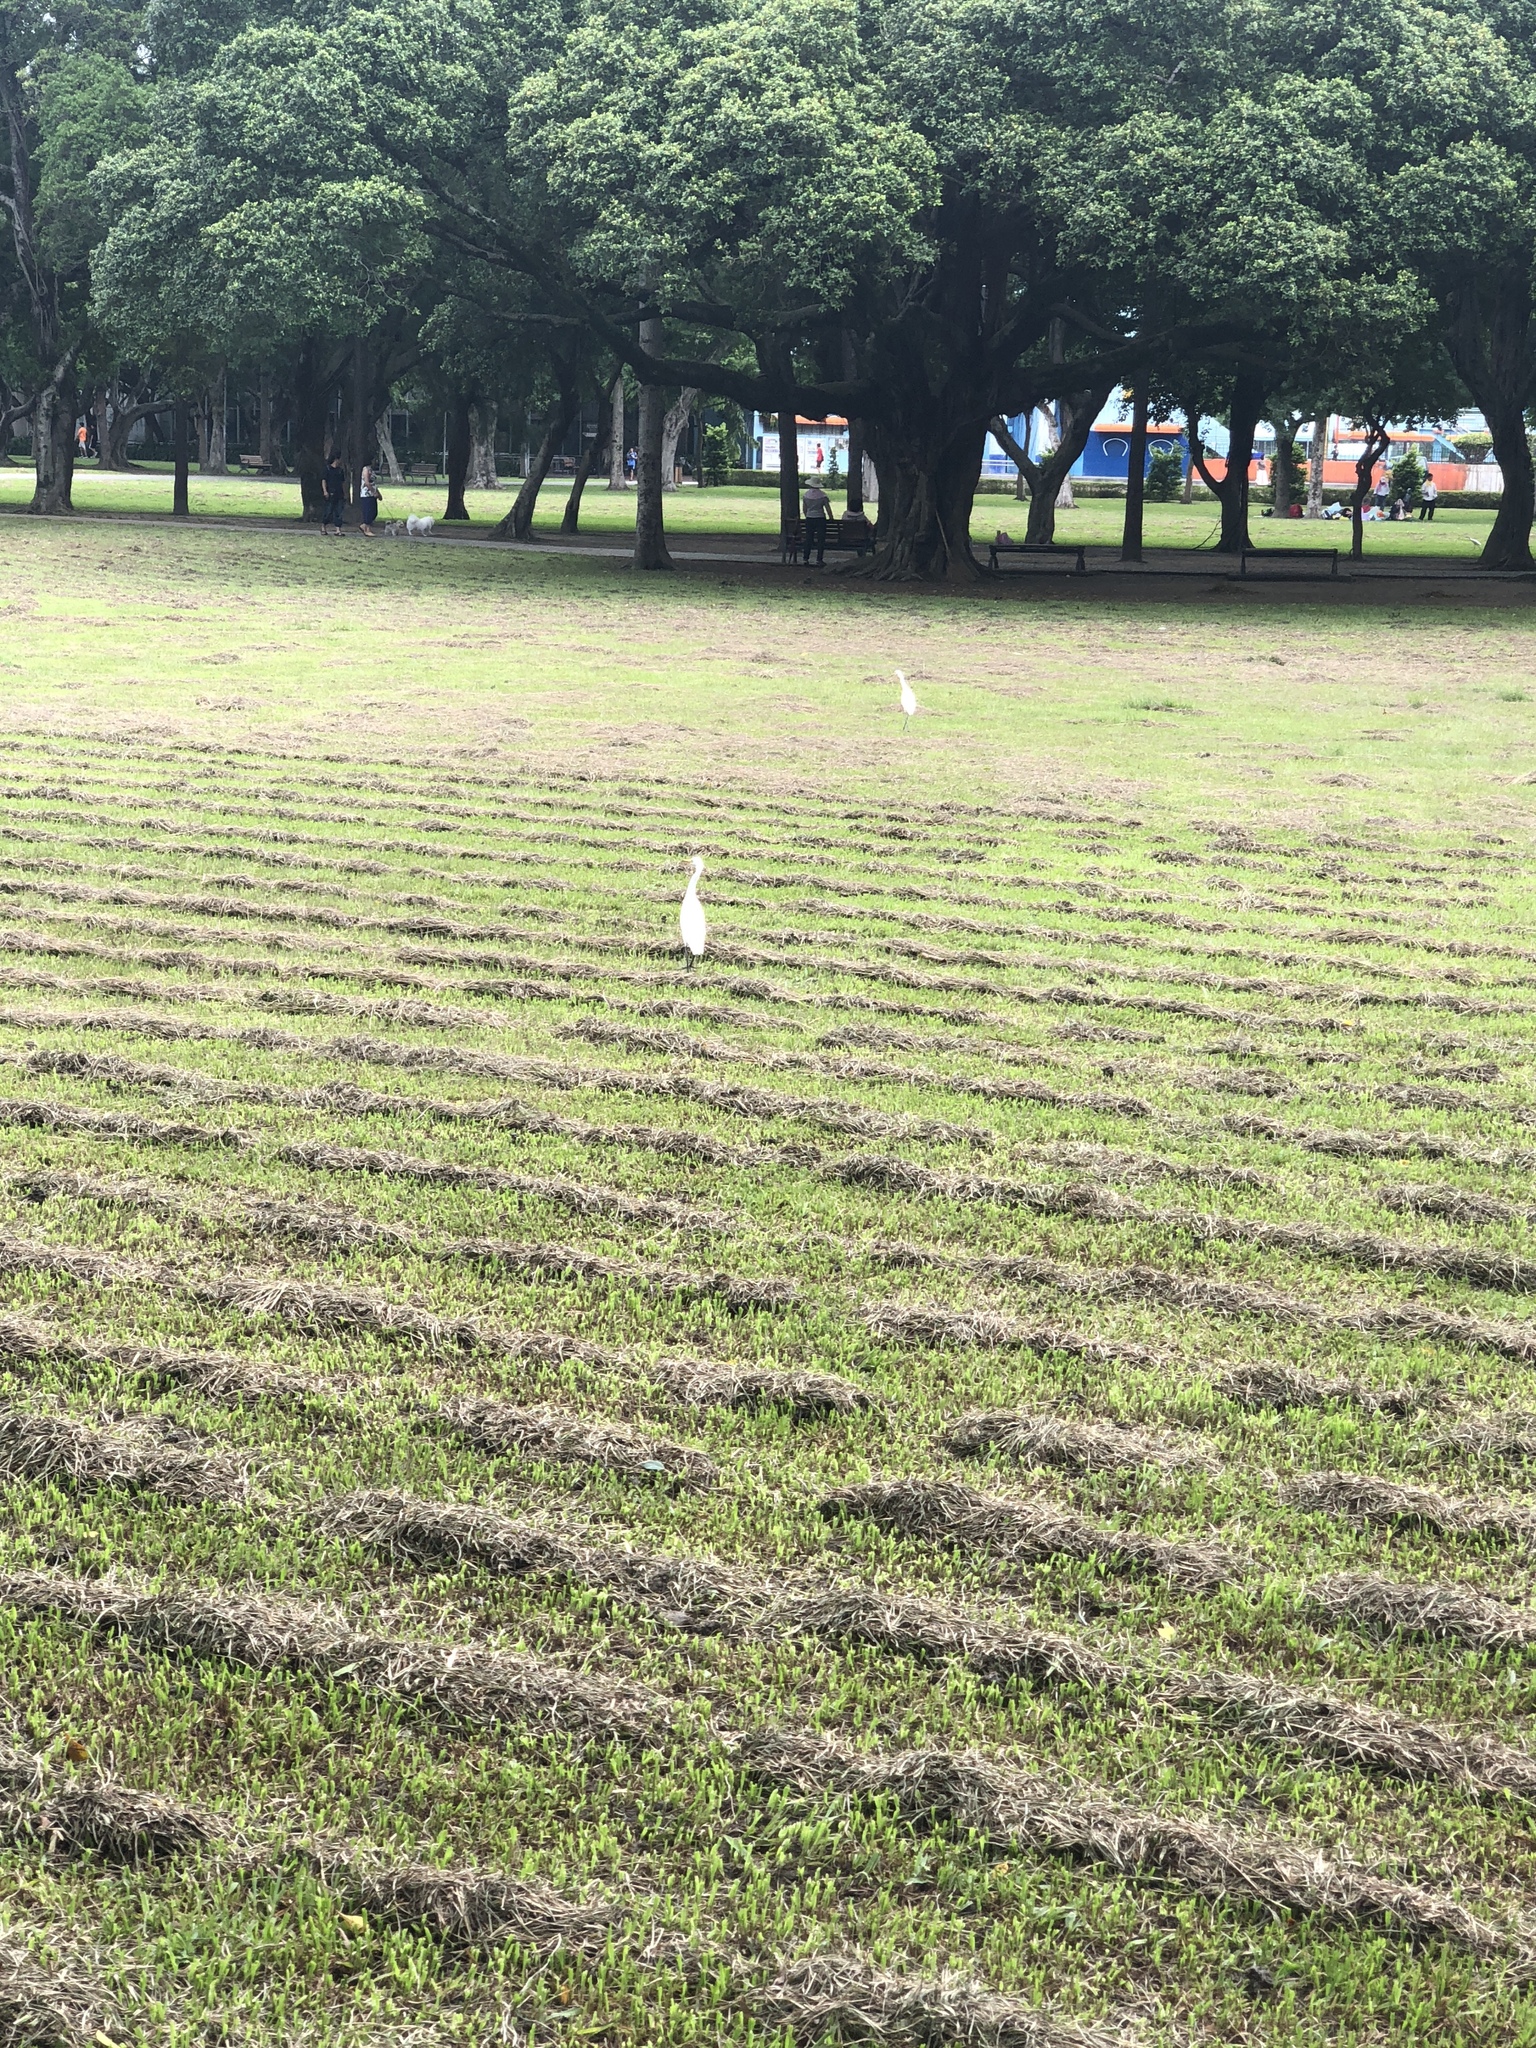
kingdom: Animalia
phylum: Chordata
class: Aves
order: Pelecaniformes
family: Ardeidae
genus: Bubulcus
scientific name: Bubulcus coromandus
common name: Eastern cattle egret
